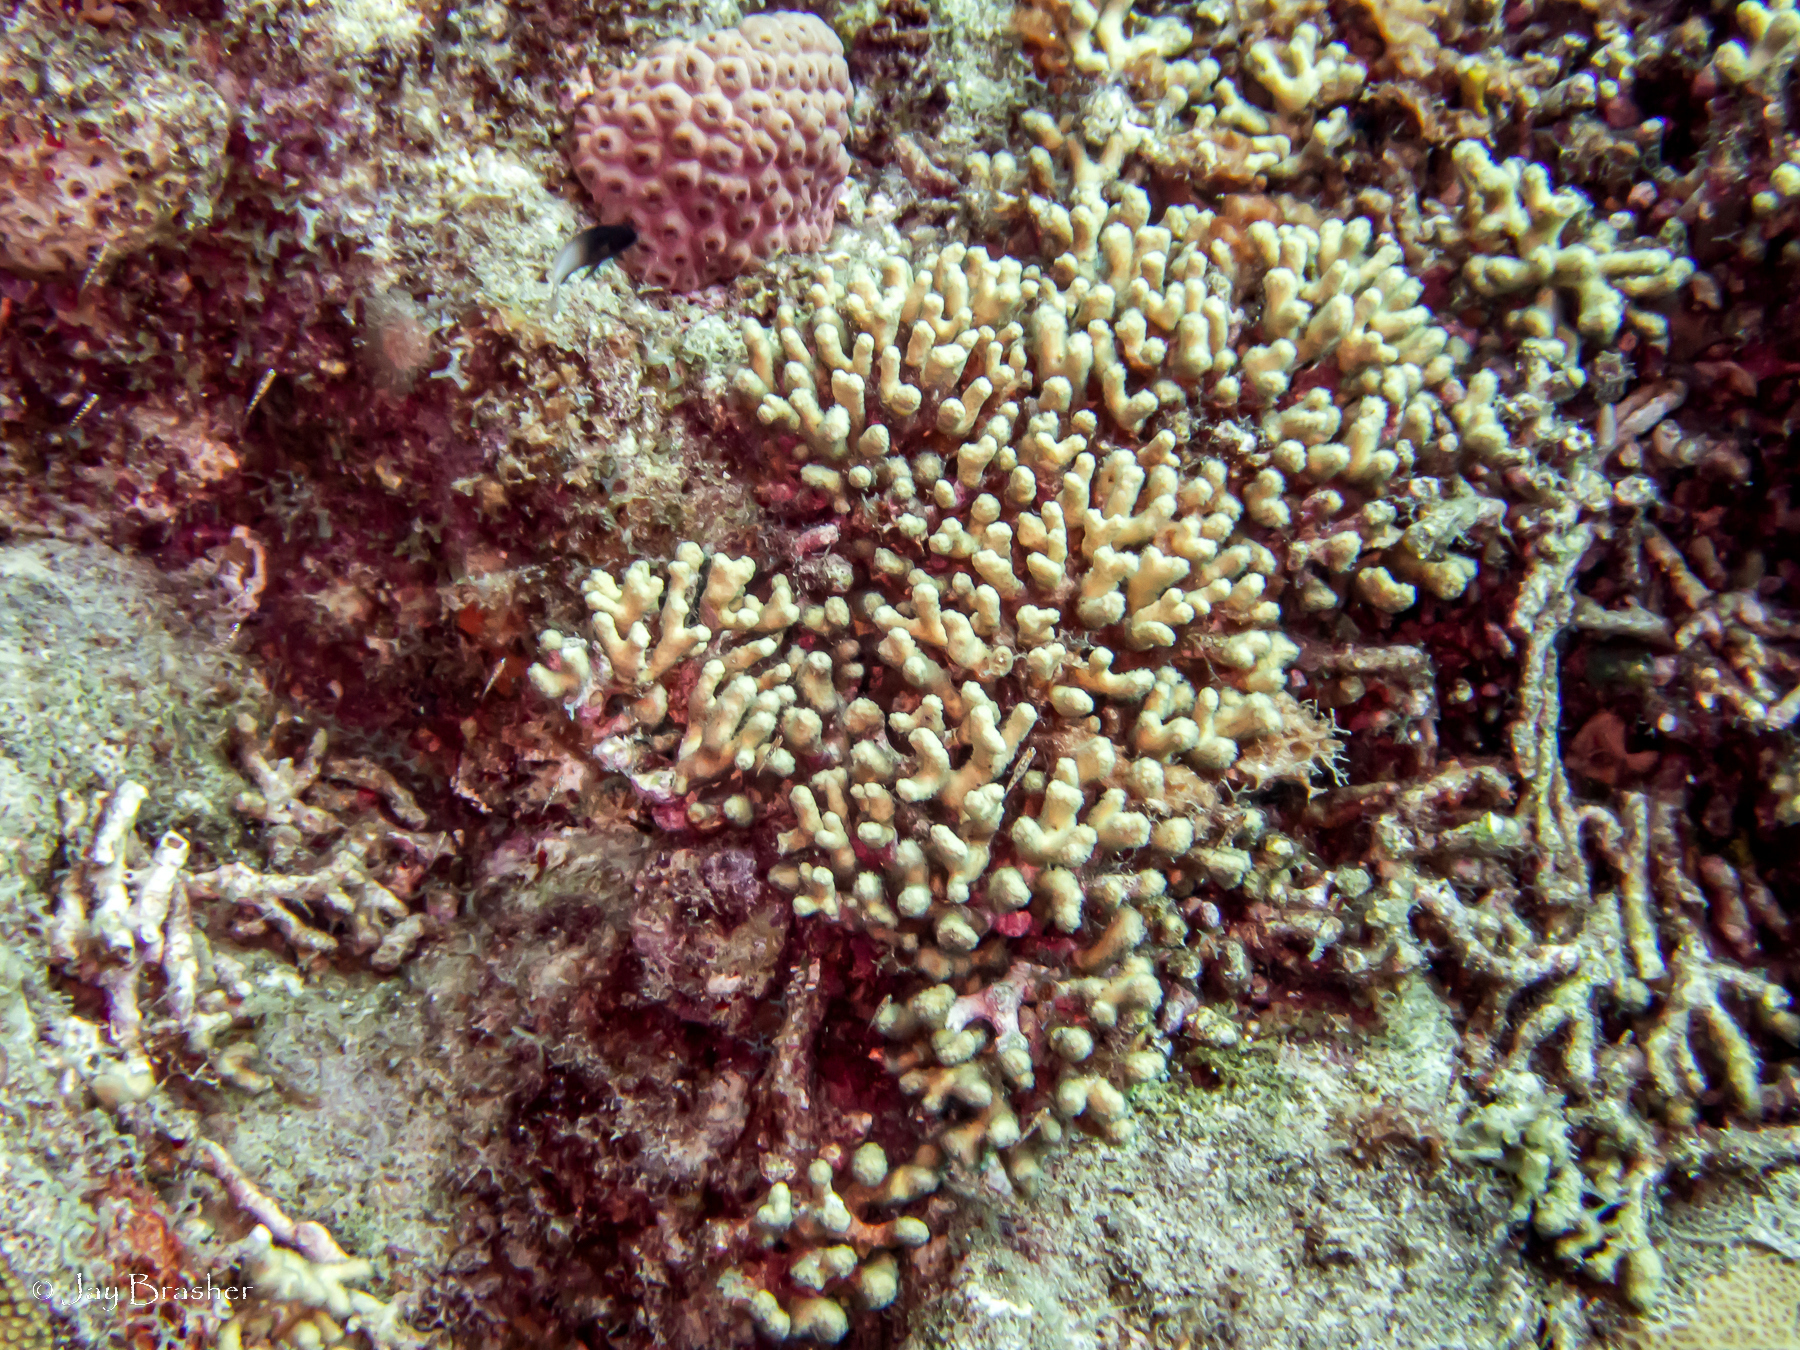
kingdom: Animalia
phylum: Cnidaria
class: Anthozoa
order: Scleractinia
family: Pocilloporidae
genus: Madracis
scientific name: Madracis auretenra
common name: Yellow pencil coral
